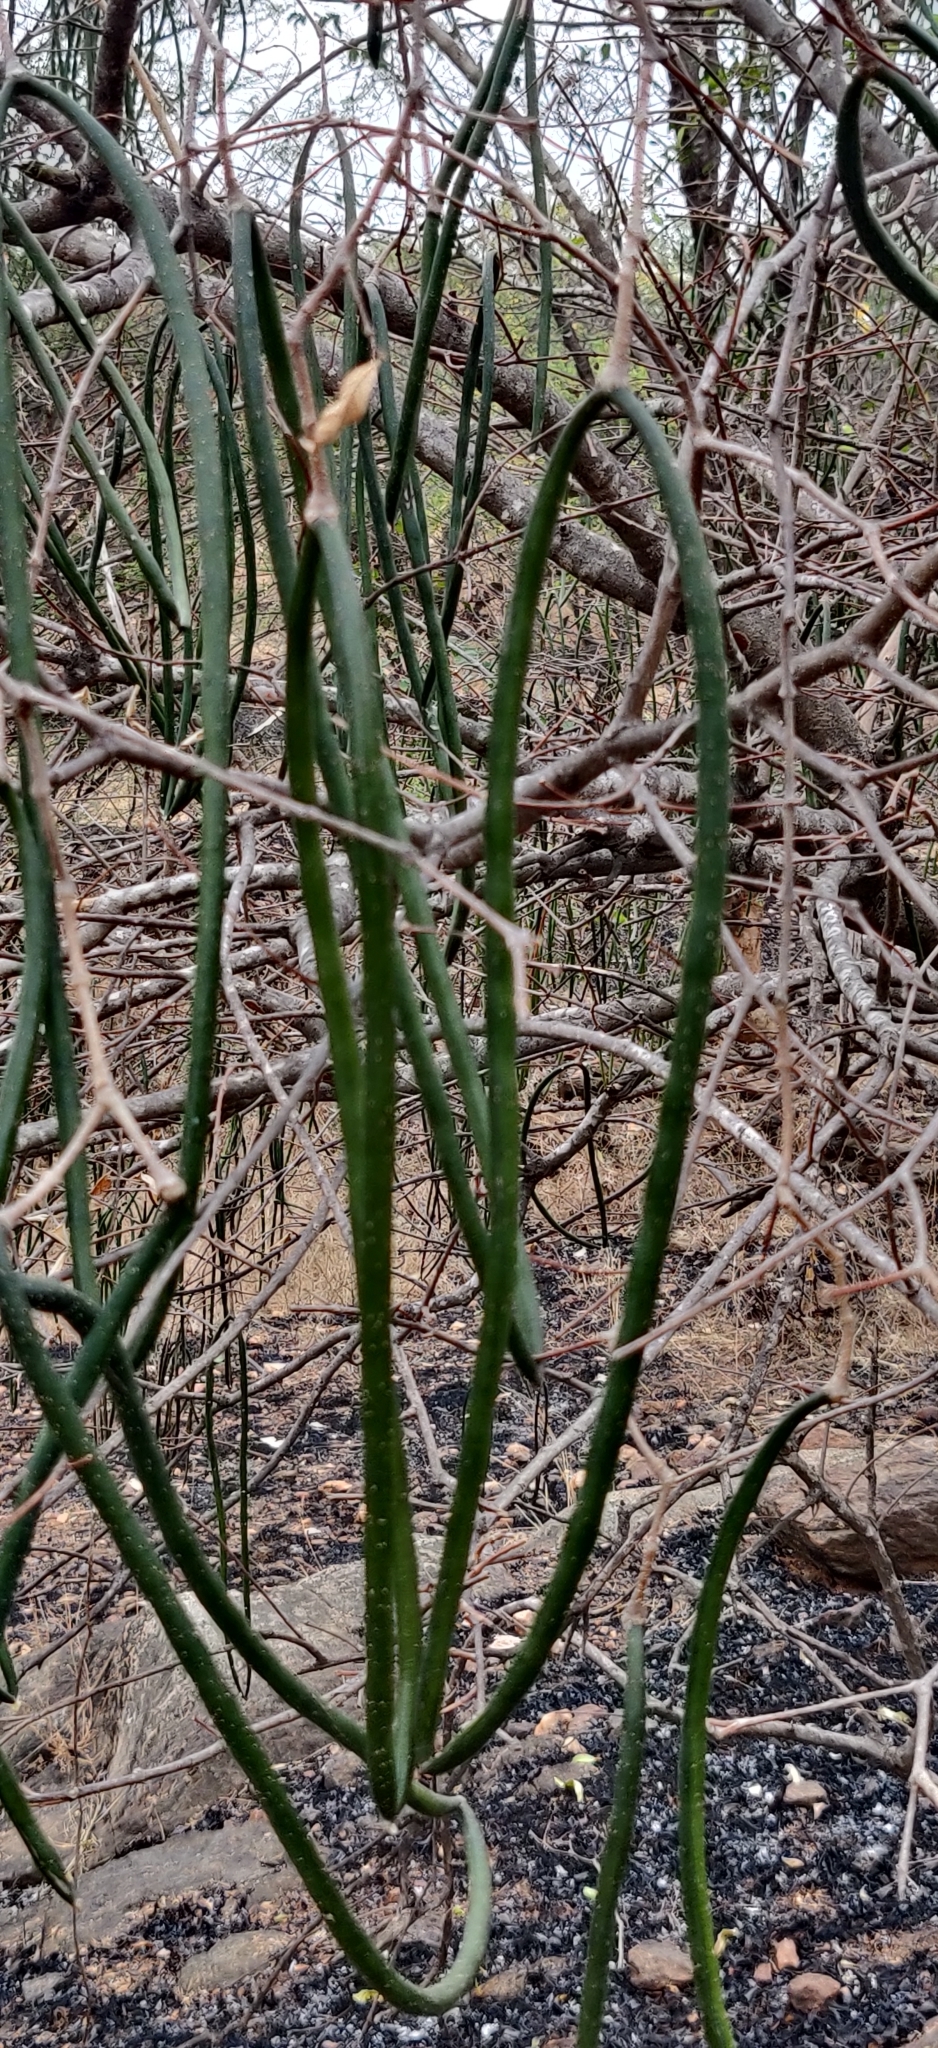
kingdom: Plantae
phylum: Tracheophyta
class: Magnoliopsida
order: Gentianales
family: Apocynaceae
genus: Wrightia
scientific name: Wrightia tinctoria
